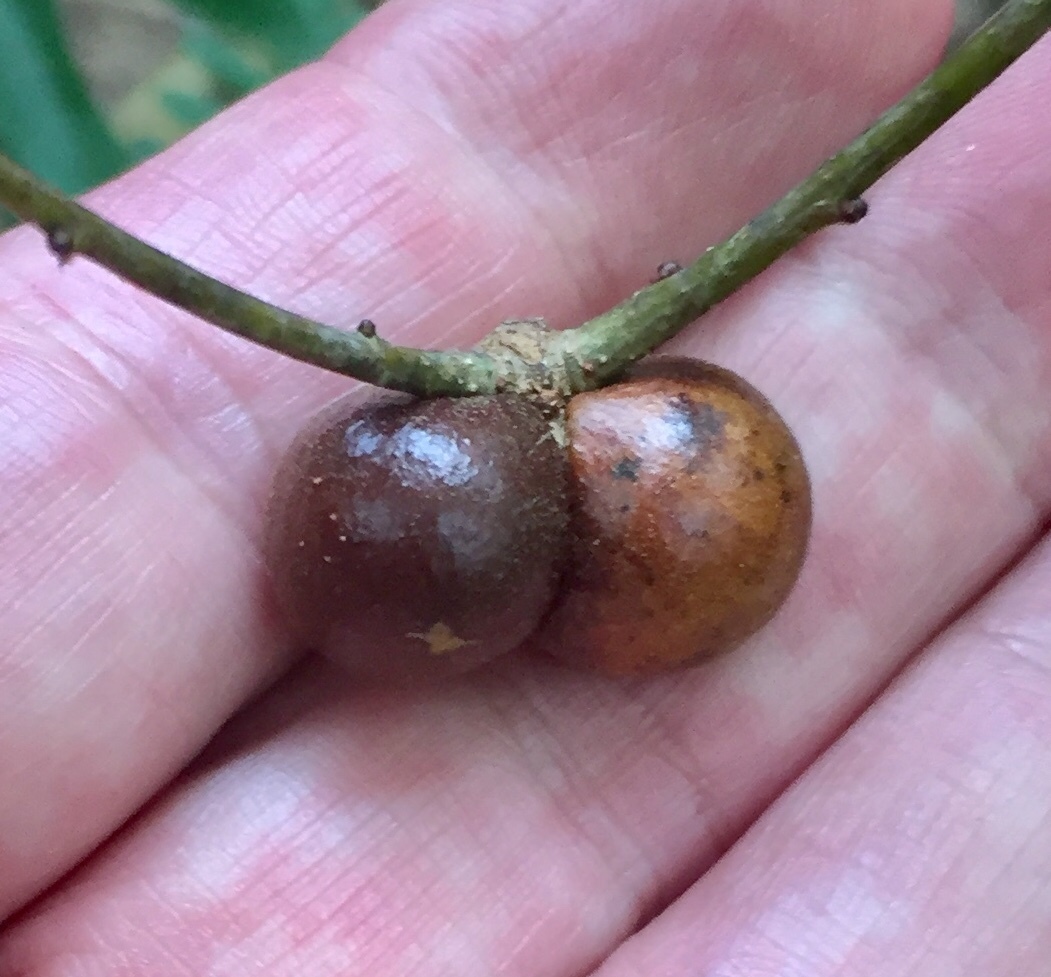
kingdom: Animalia
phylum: Arthropoda
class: Insecta
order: Hymenoptera
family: Cynipidae
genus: Disholcaspis
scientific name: Disholcaspis quercusglobulus
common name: Round bullet gall wasp
